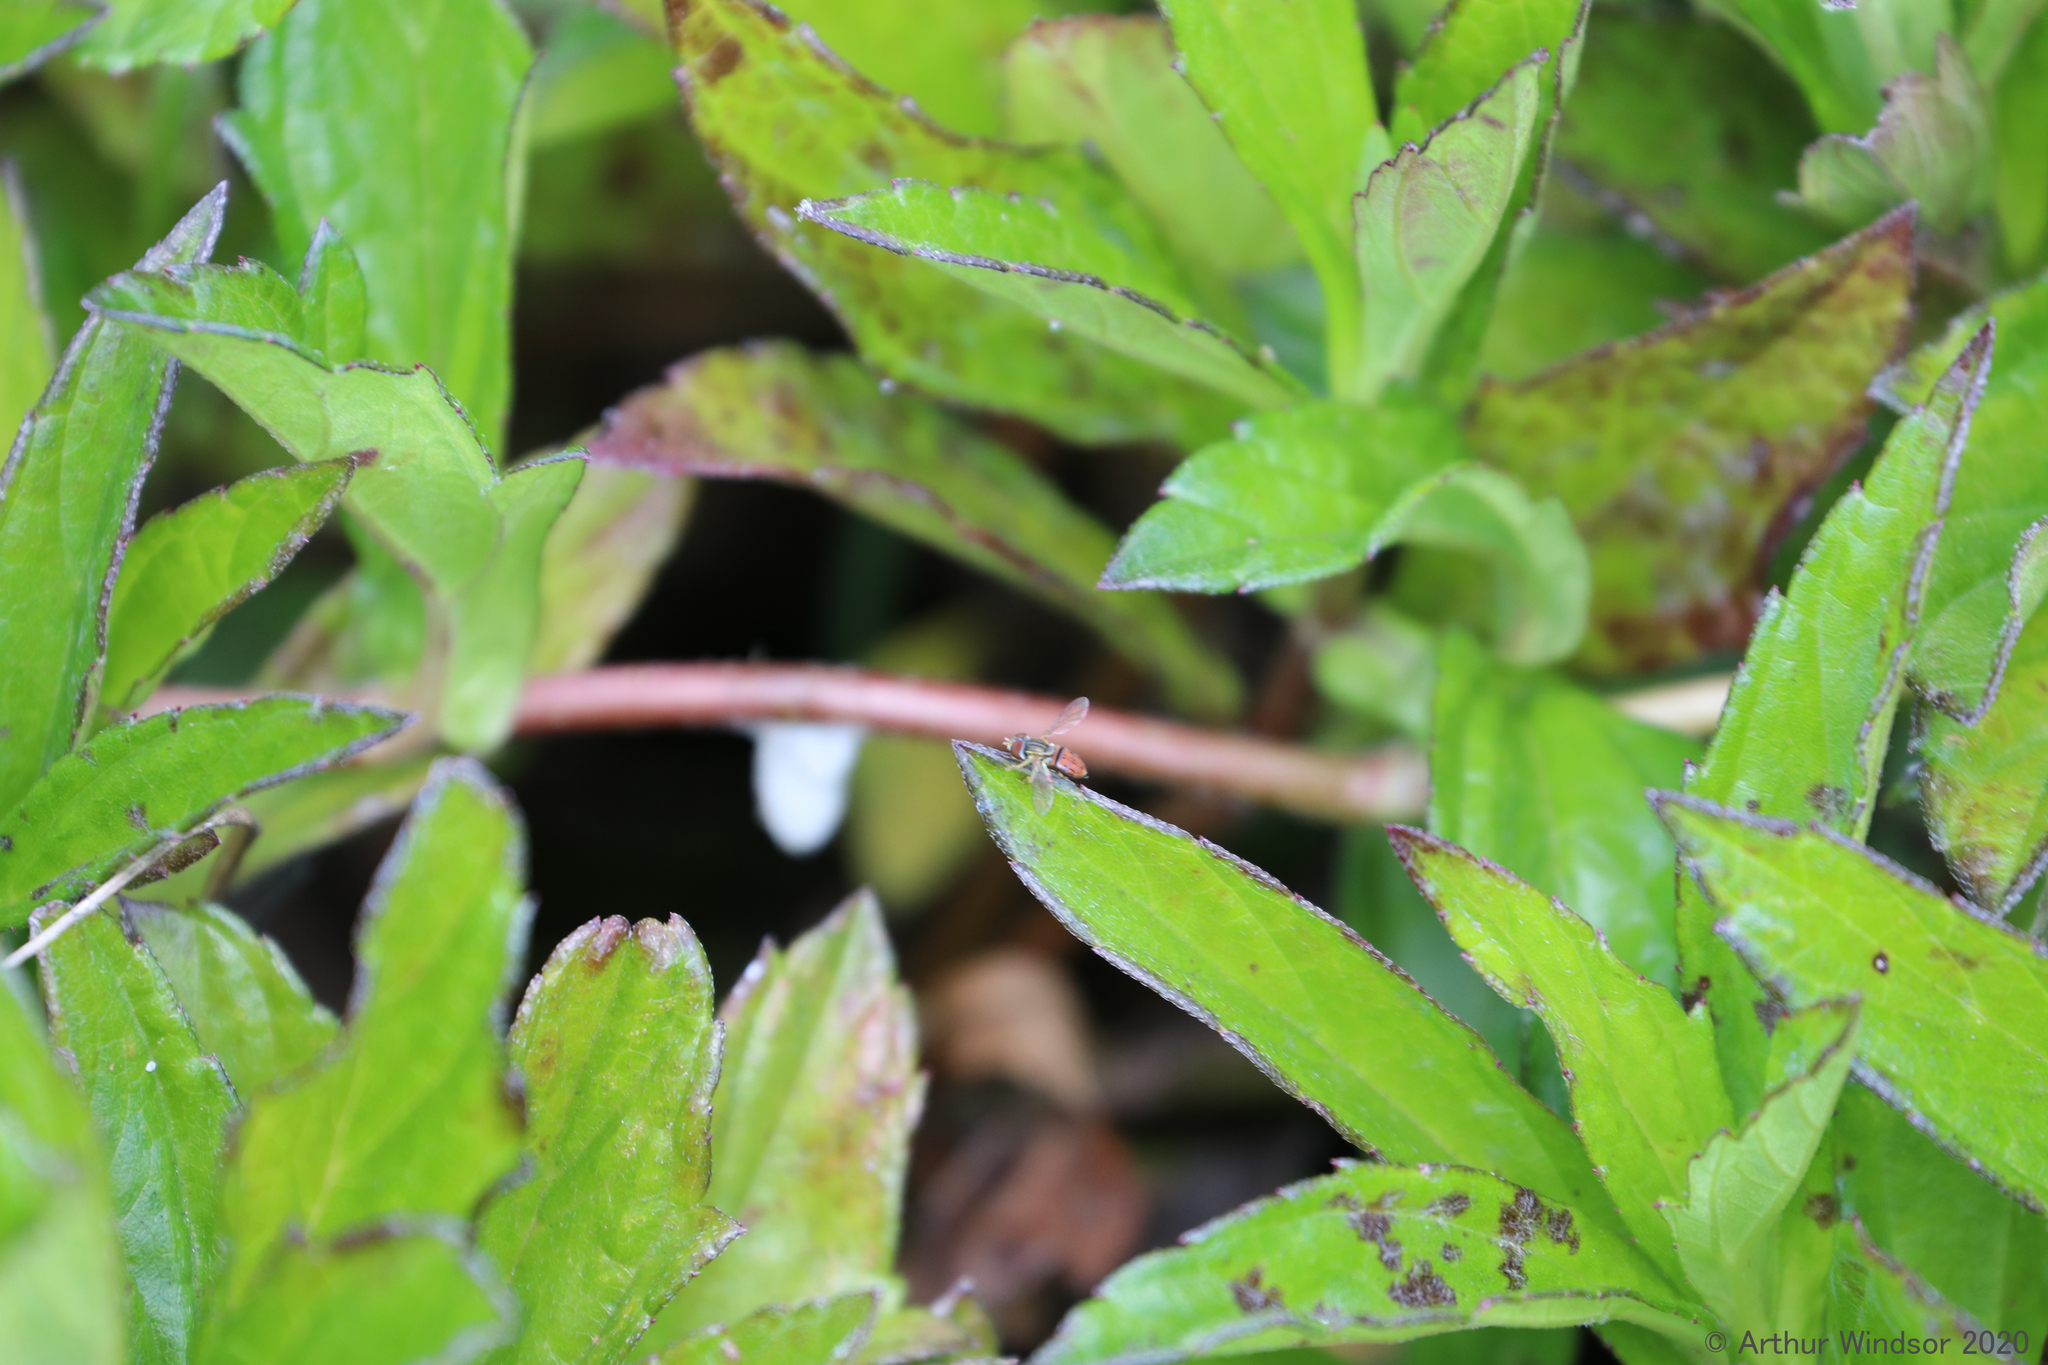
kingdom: Animalia
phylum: Arthropoda
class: Insecta
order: Diptera
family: Syrphidae
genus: Toxomerus
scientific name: Toxomerus boscii
